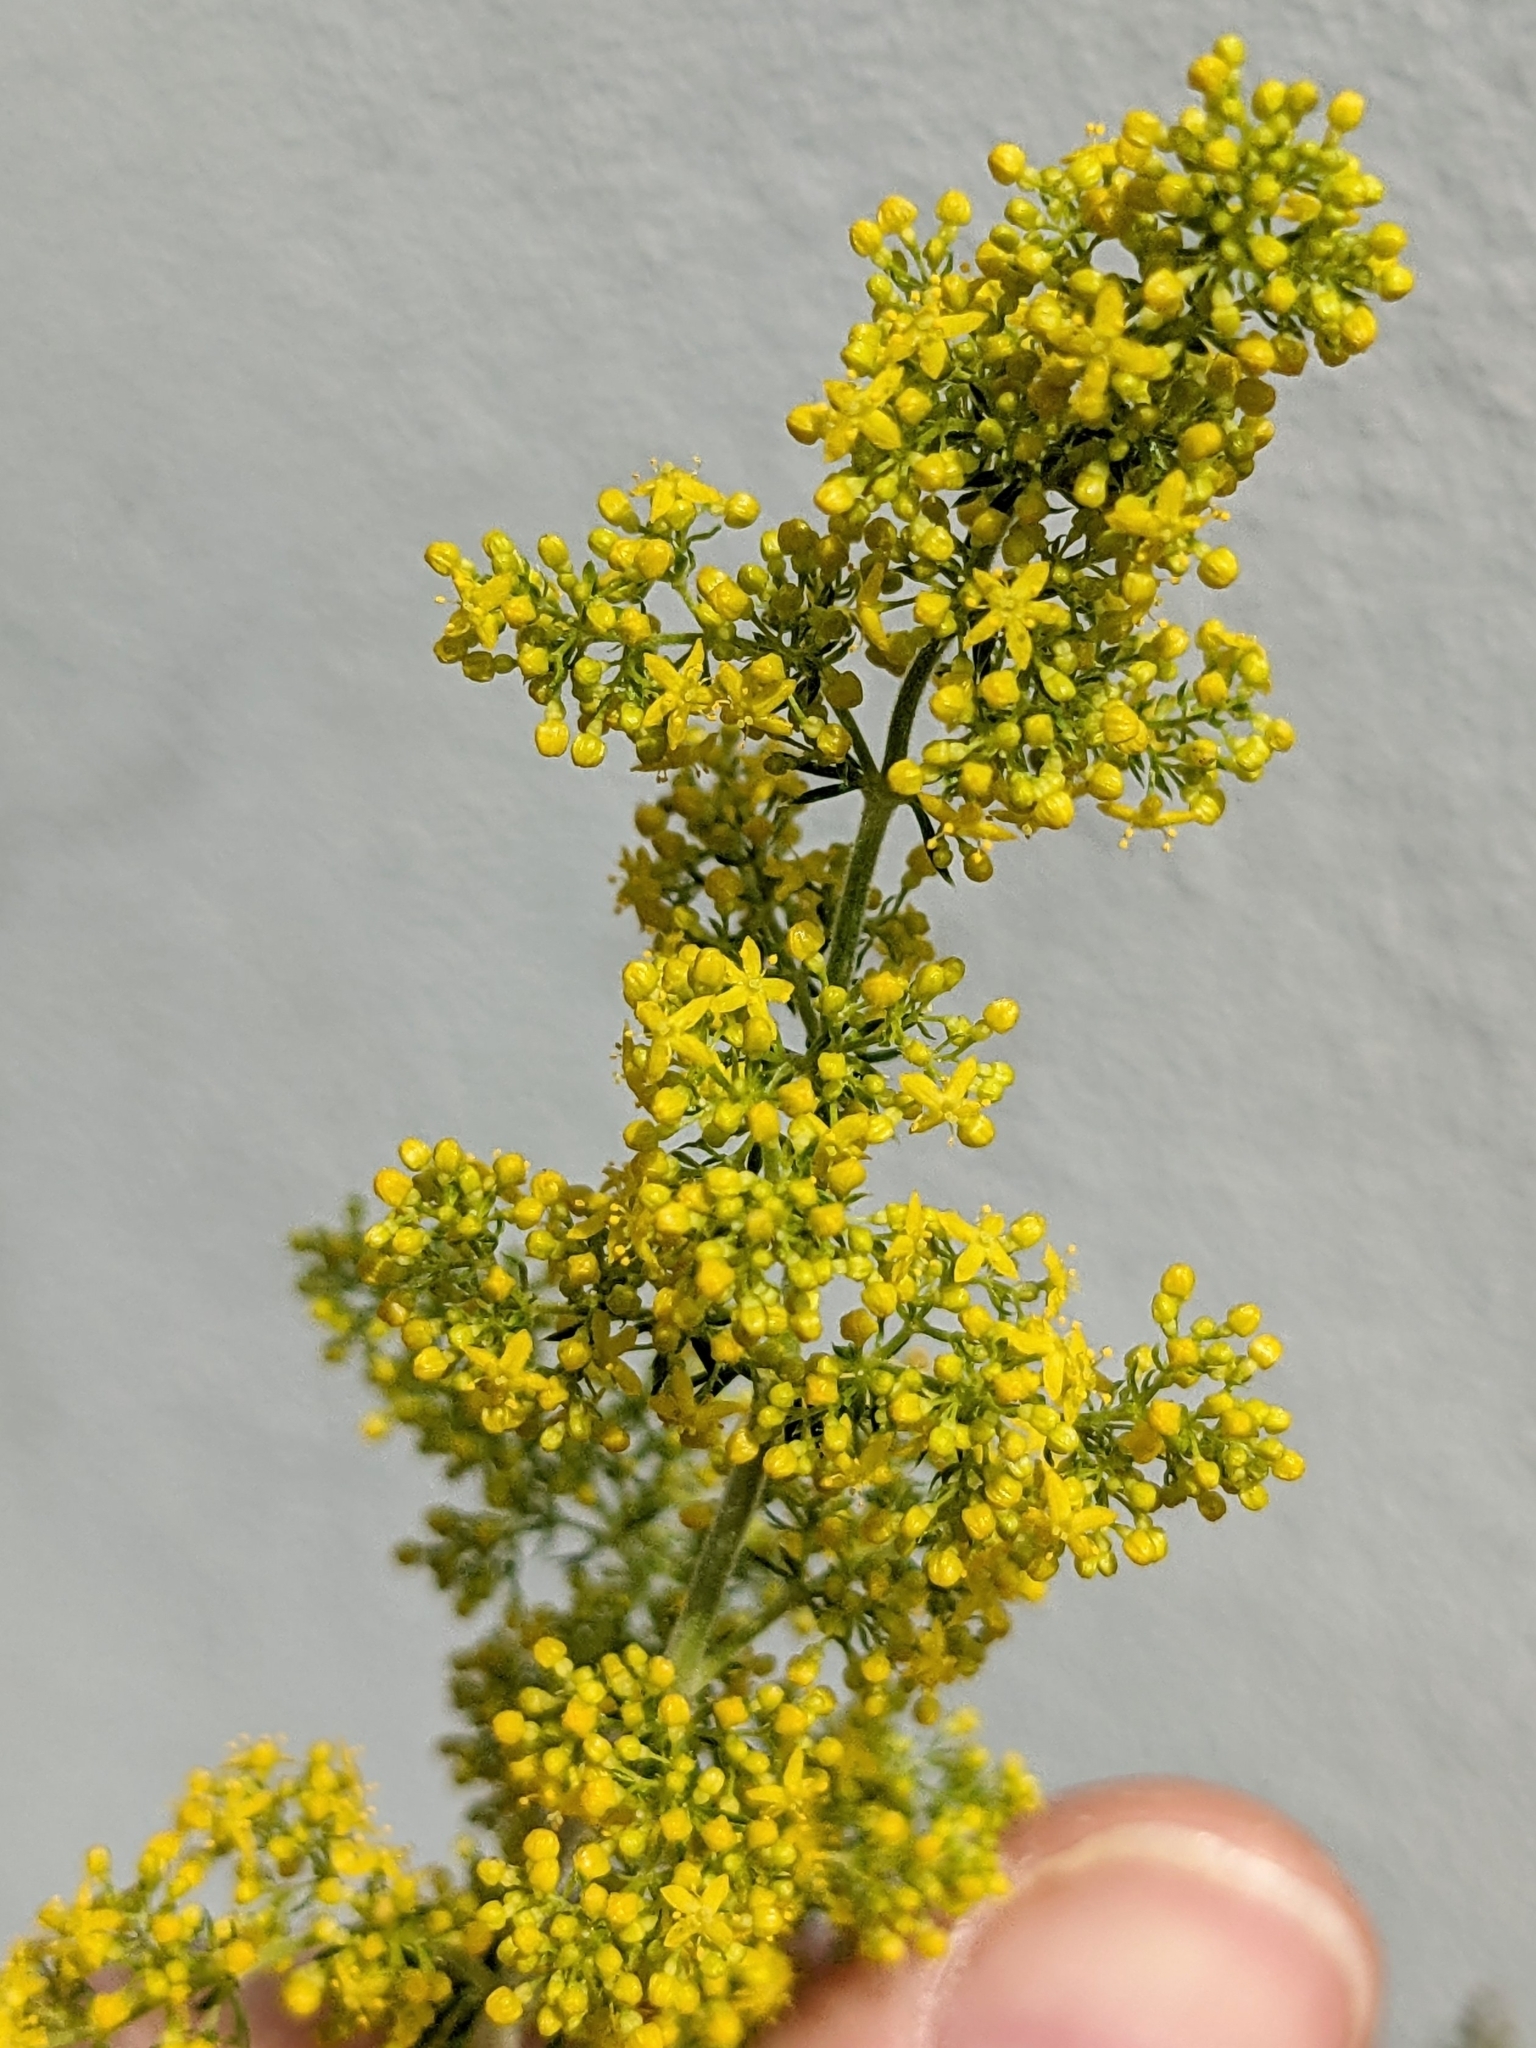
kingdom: Plantae
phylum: Tracheophyta
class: Magnoliopsida
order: Gentianales
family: Rubiaceae
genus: Galium
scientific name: Galium verum
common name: Lady's bedstraw
